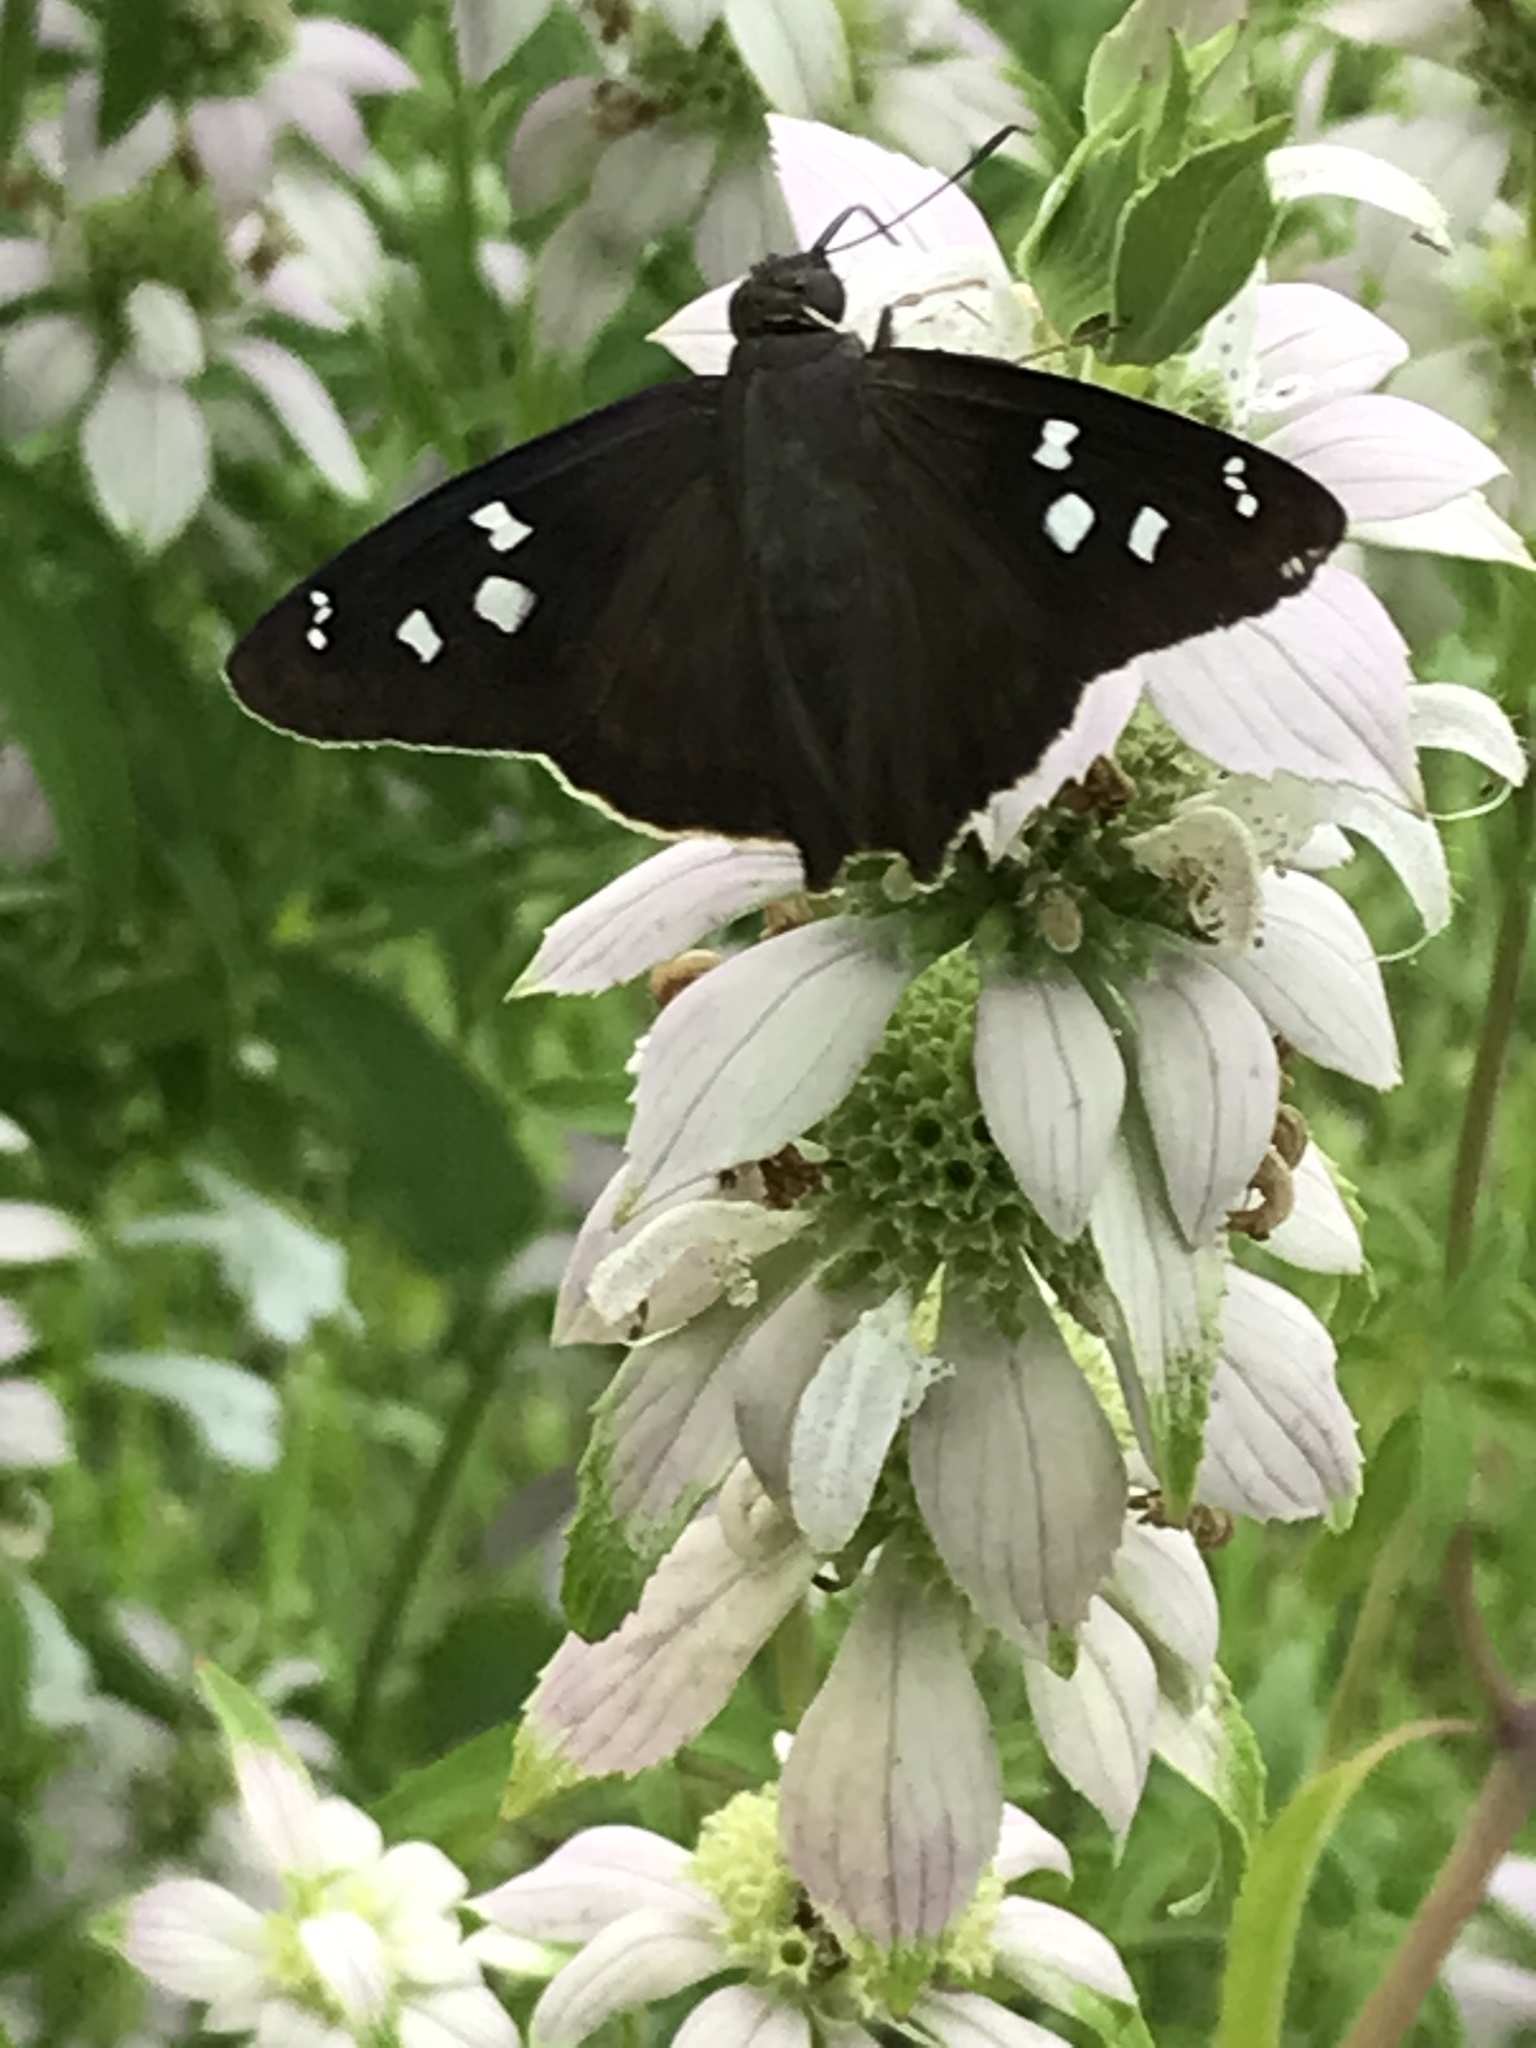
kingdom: Animalia
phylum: Arthropoda
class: Insecta
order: Lepidoptera
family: Hesperiidae
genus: Polygonus
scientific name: Polygonus leo
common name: Hammoch skipper
